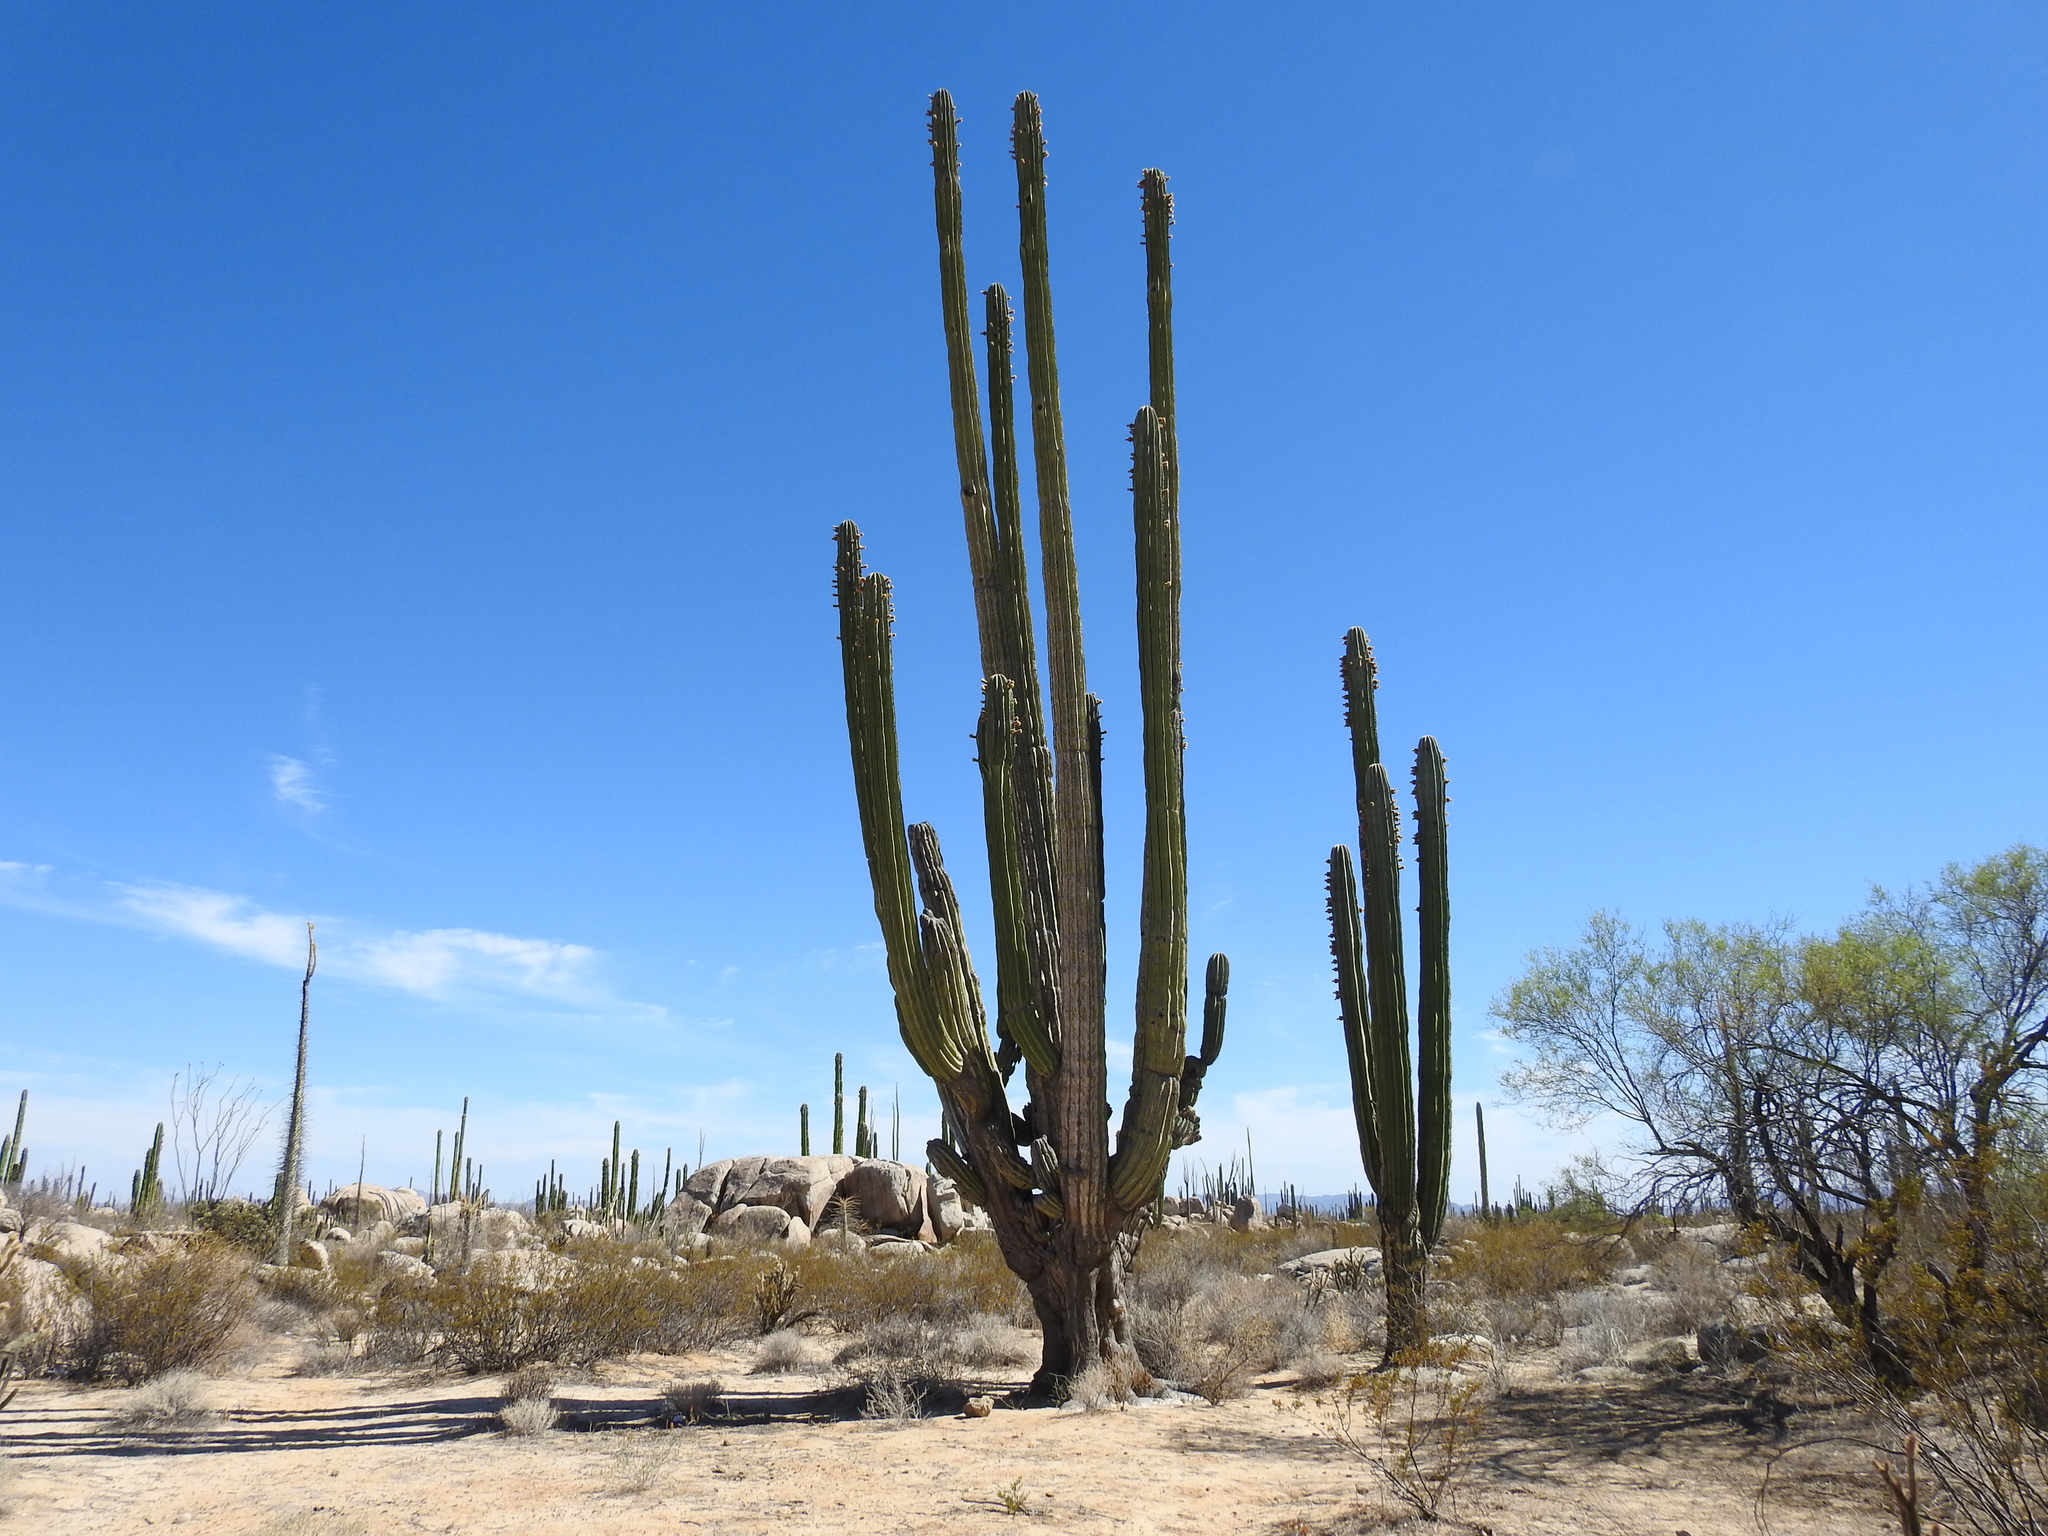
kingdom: Plantae
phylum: Tracheophyta
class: Magnoliopsida
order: Caryophyllales
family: Cactaceae
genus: Pachycereus
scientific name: Pachycereus pringlei
